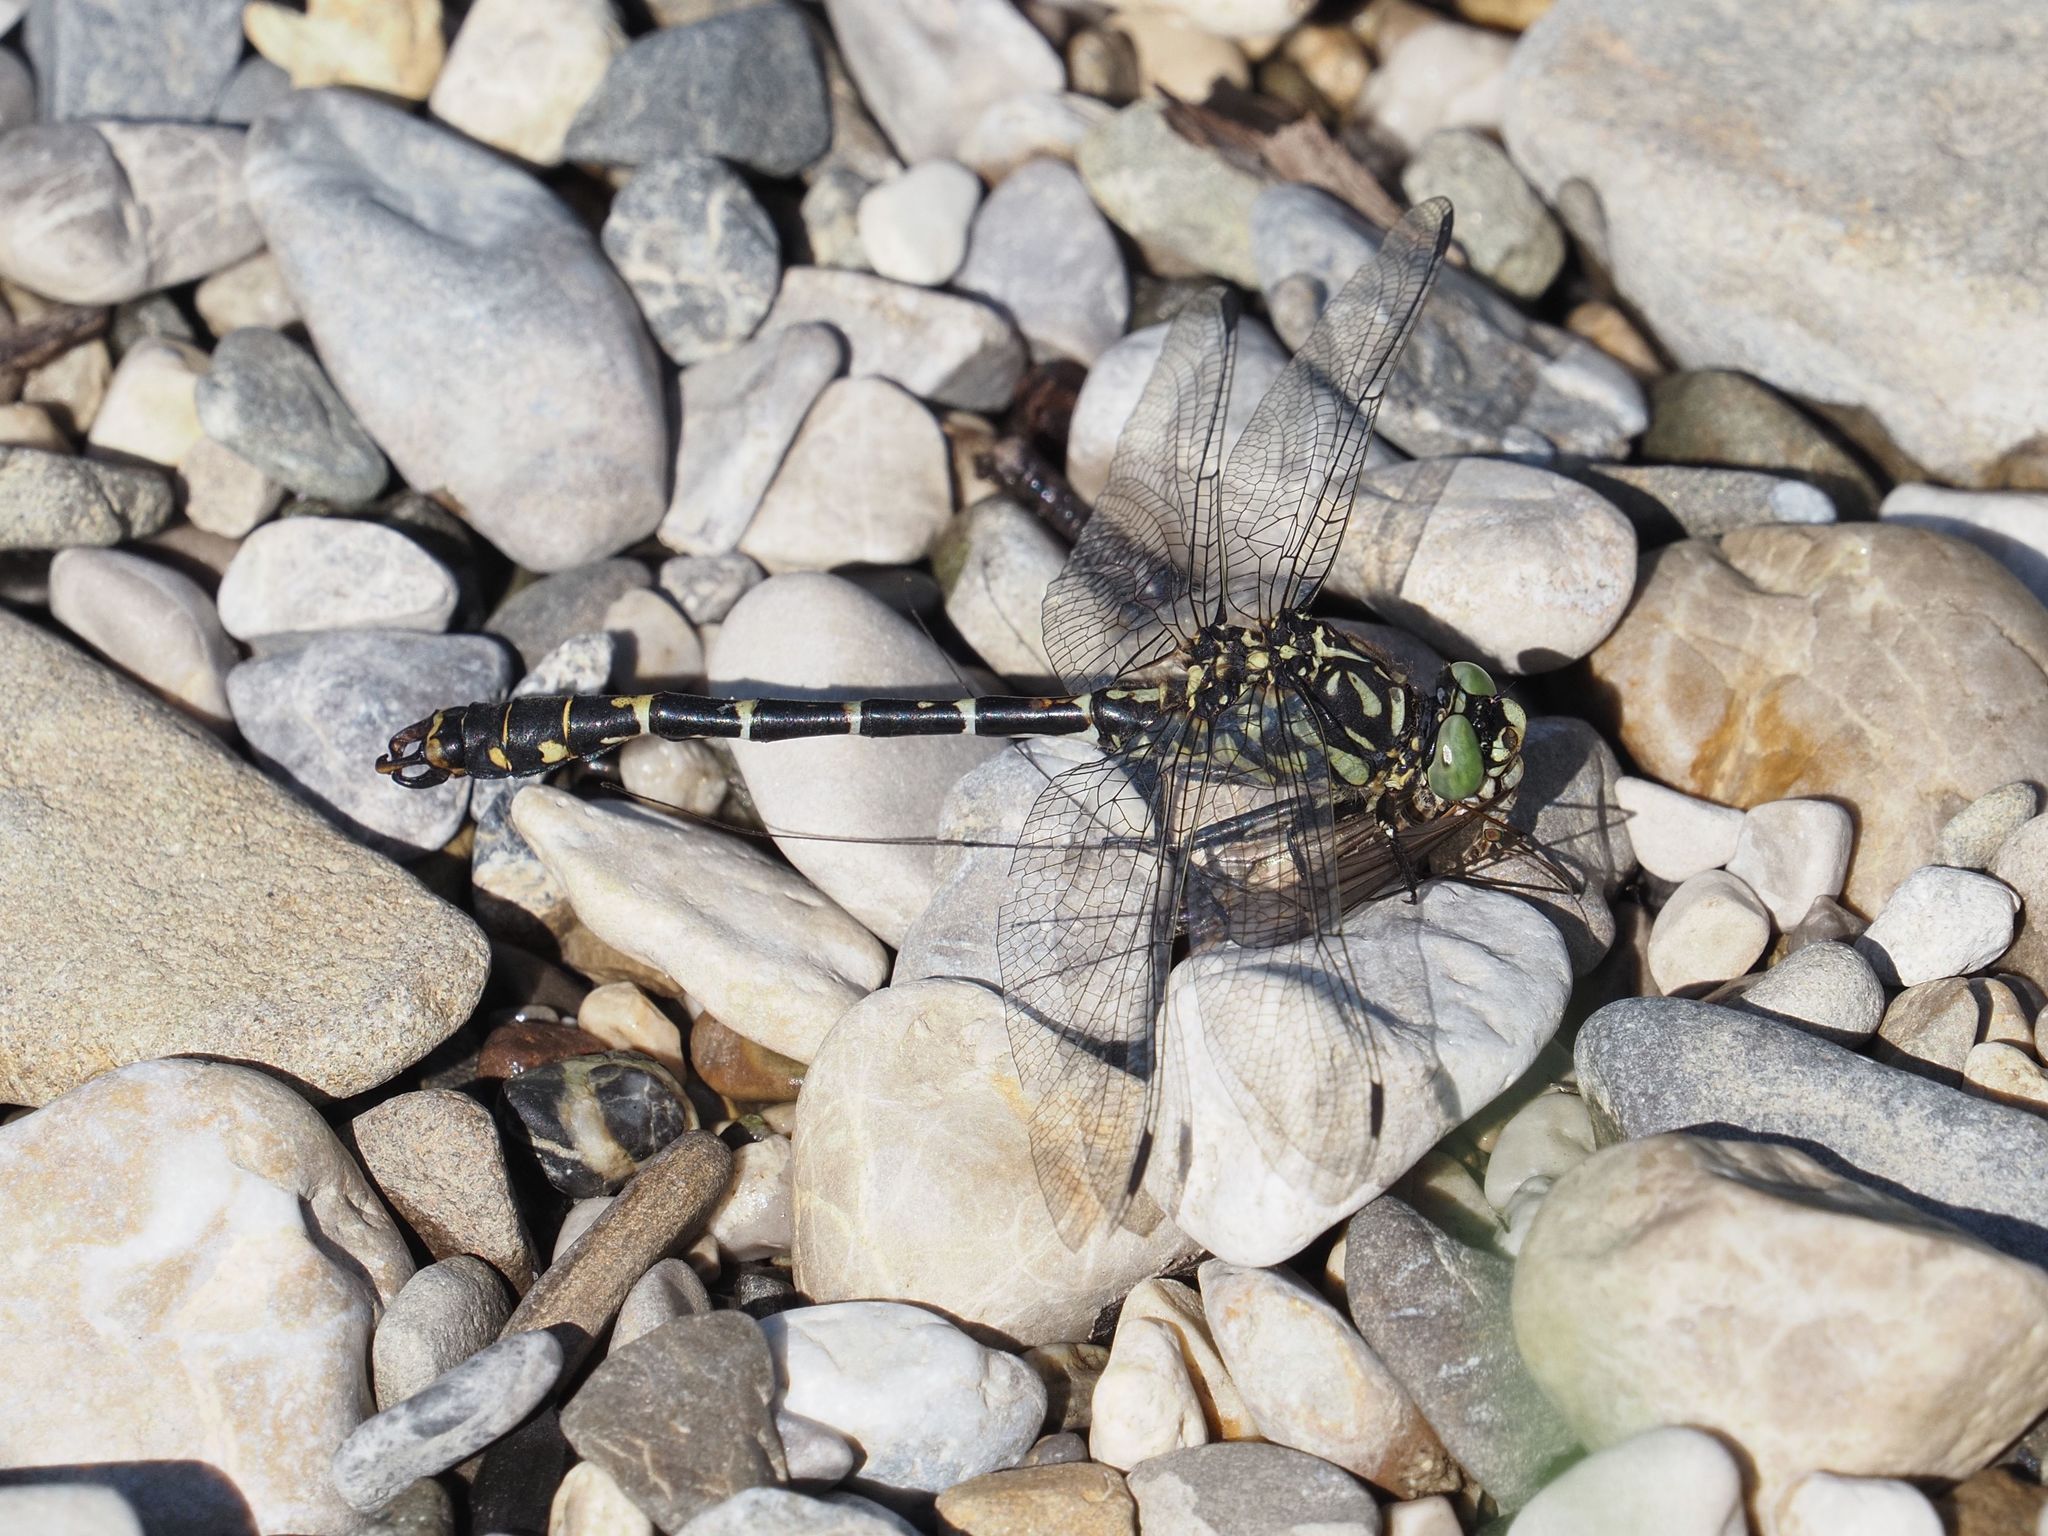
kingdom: Animalia
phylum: Arthropoda
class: Insecta
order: Odonata
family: Gomphidae
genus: Onychogomphus
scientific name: Onychogomphus forcipatus
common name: Small pincertail
